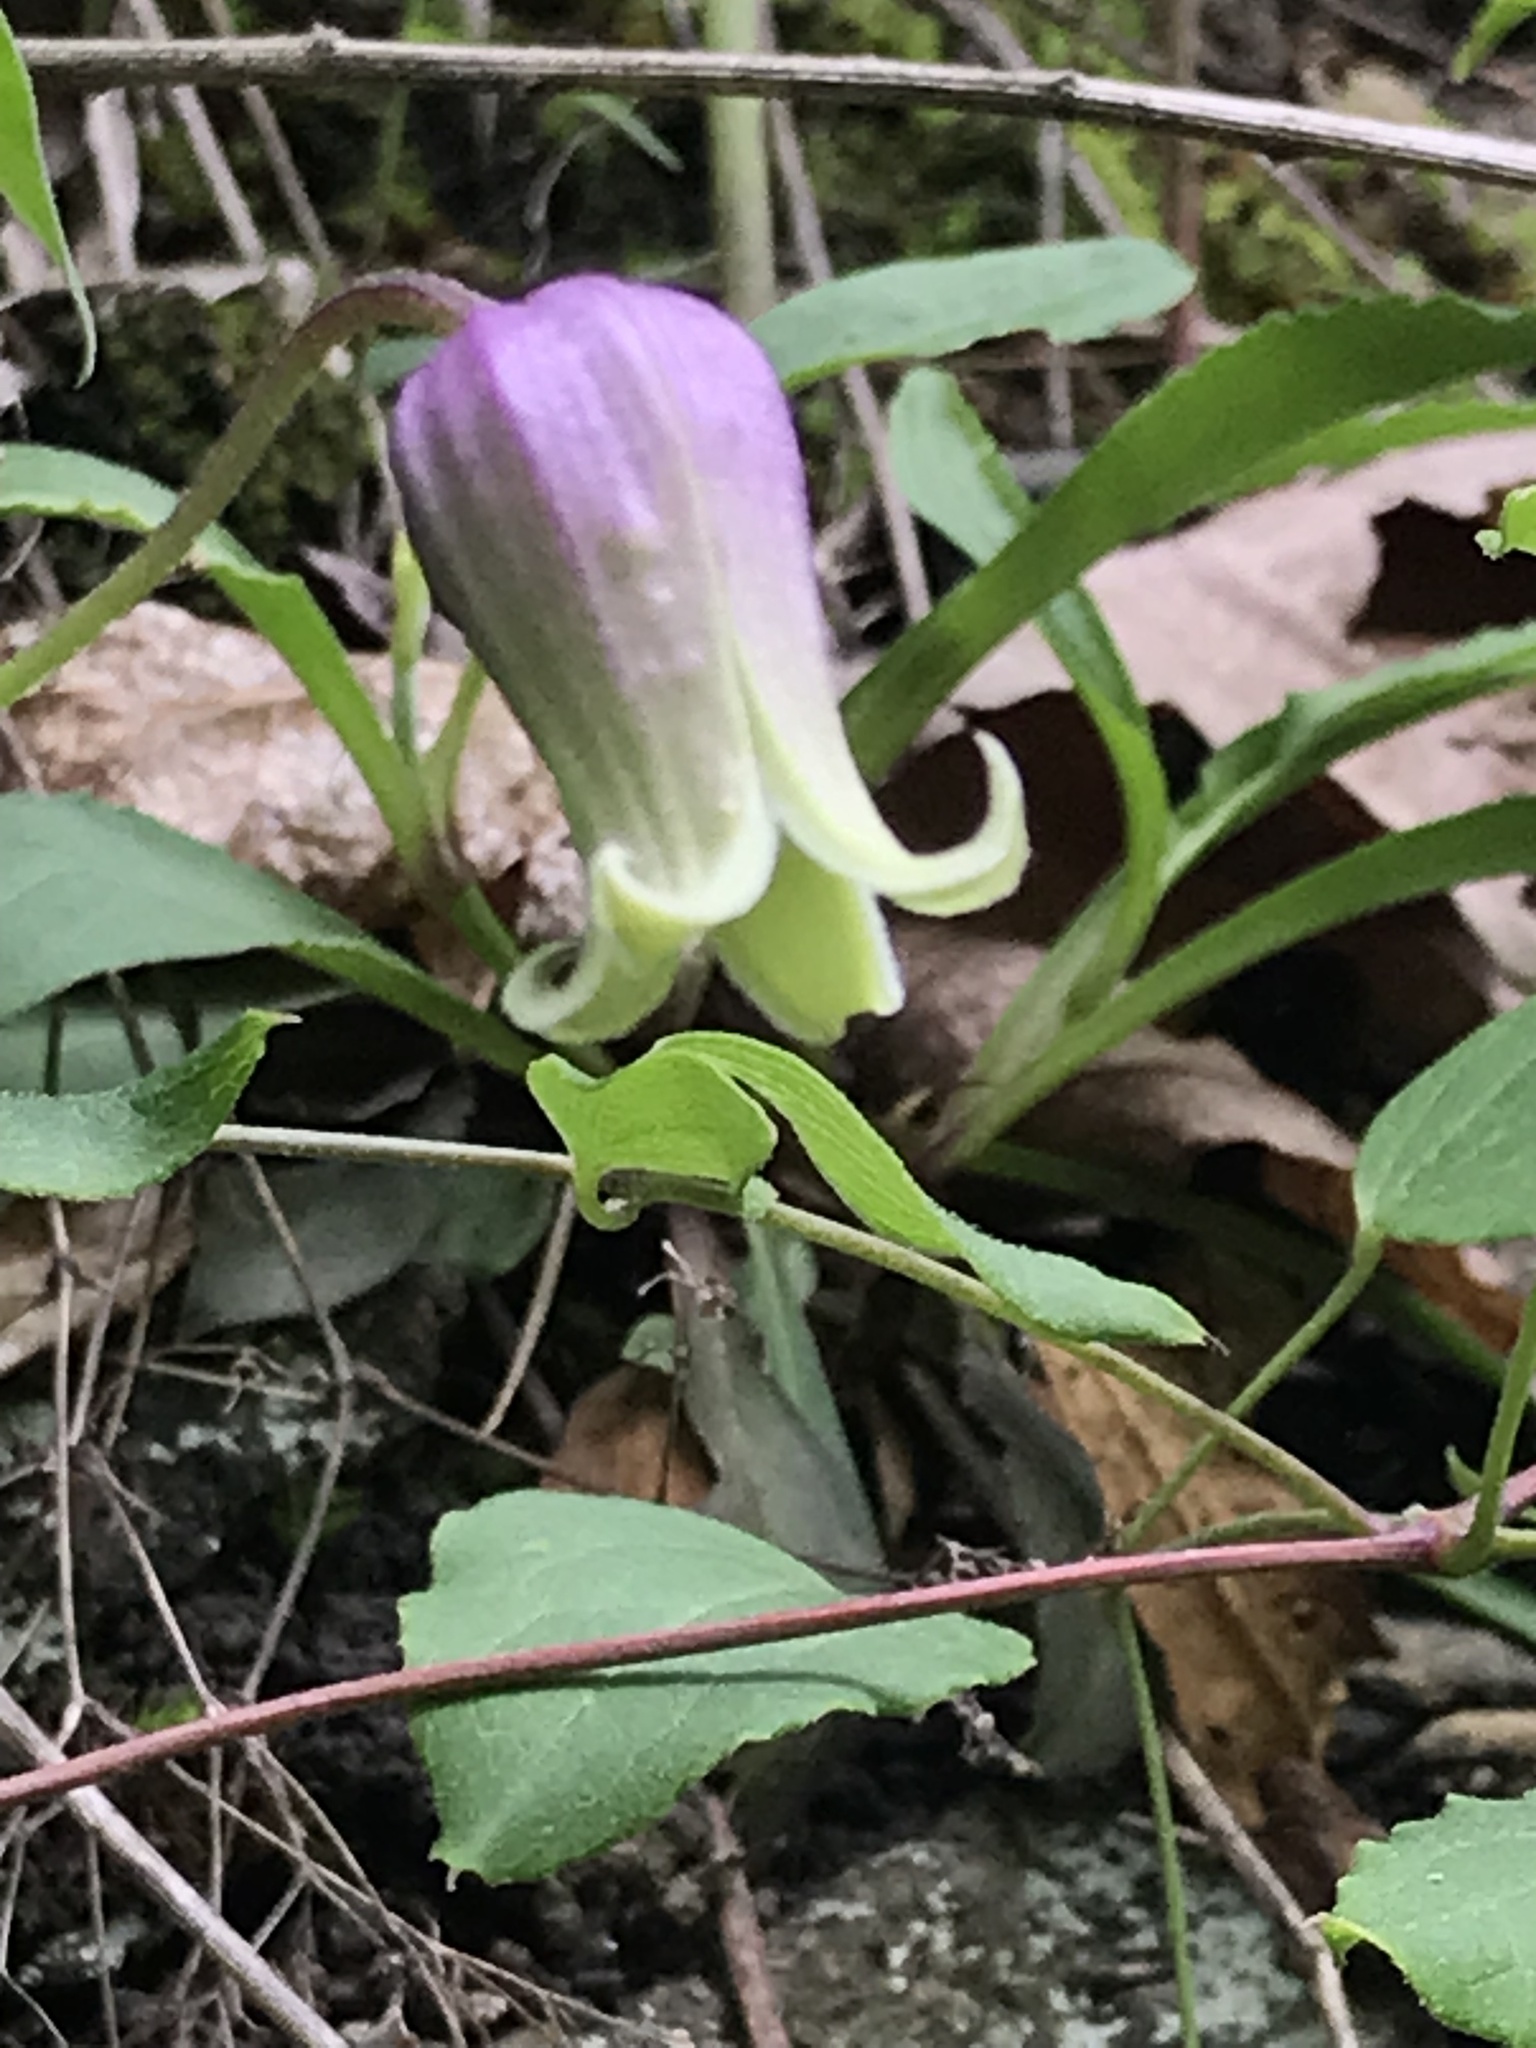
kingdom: Plantae
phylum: Tracheophyta
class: Magnoliopsida
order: Ranunculales
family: Ranunculaceae
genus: Clematis
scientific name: Clematis viorna
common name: Leather-flower
